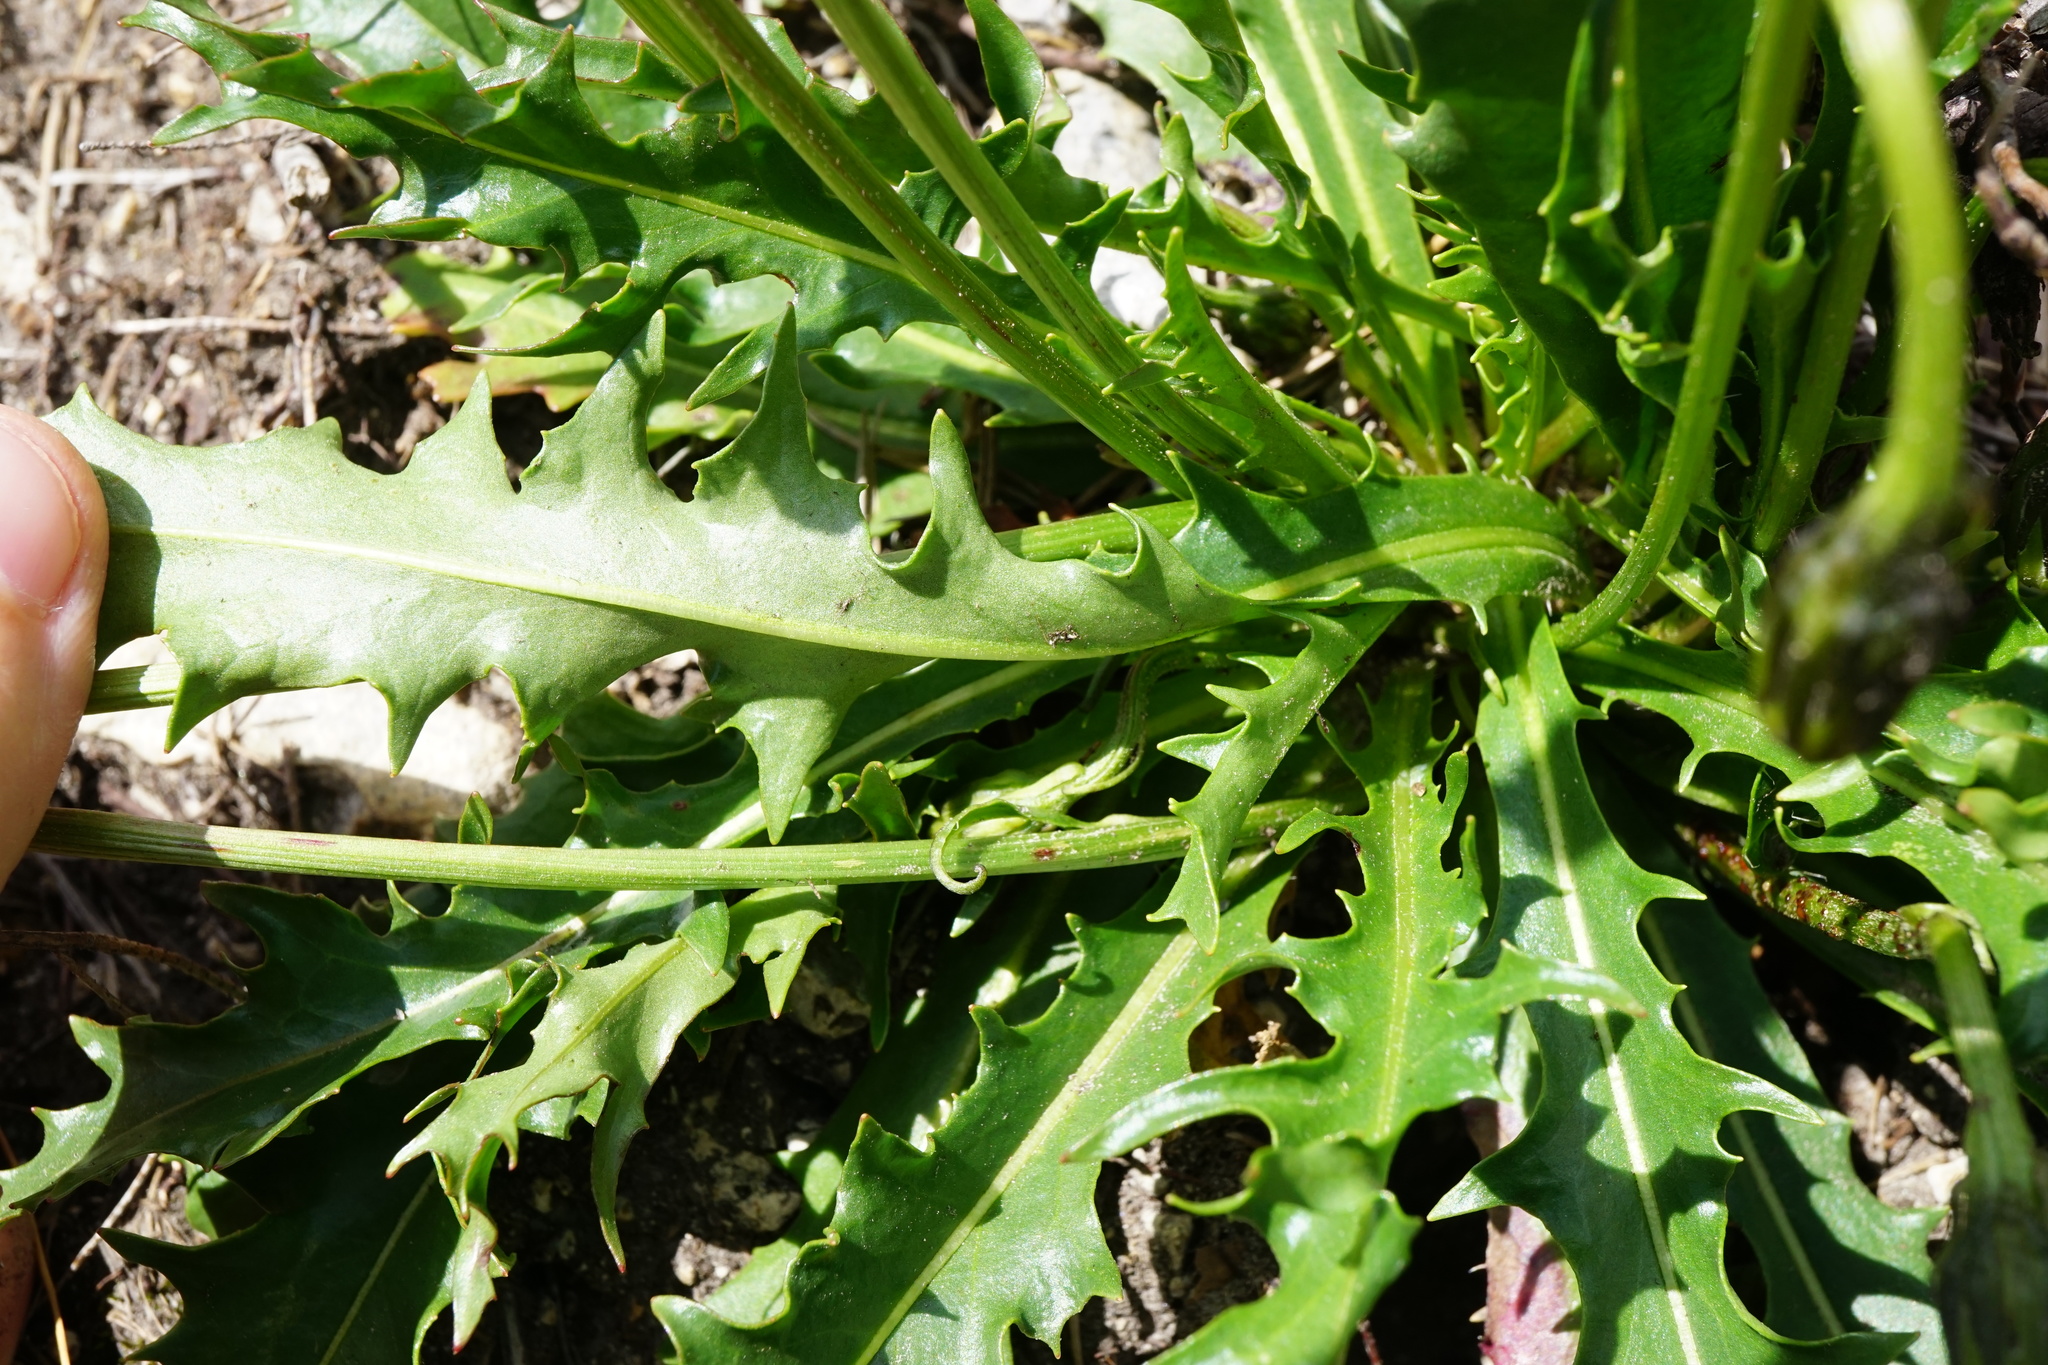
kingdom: Plantae
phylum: Tracheophyta
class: Magnoliopsida
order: Asterales
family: Asteraceae
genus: Leontodon
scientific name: Leontodon hispidus
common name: Rough hawkbit
